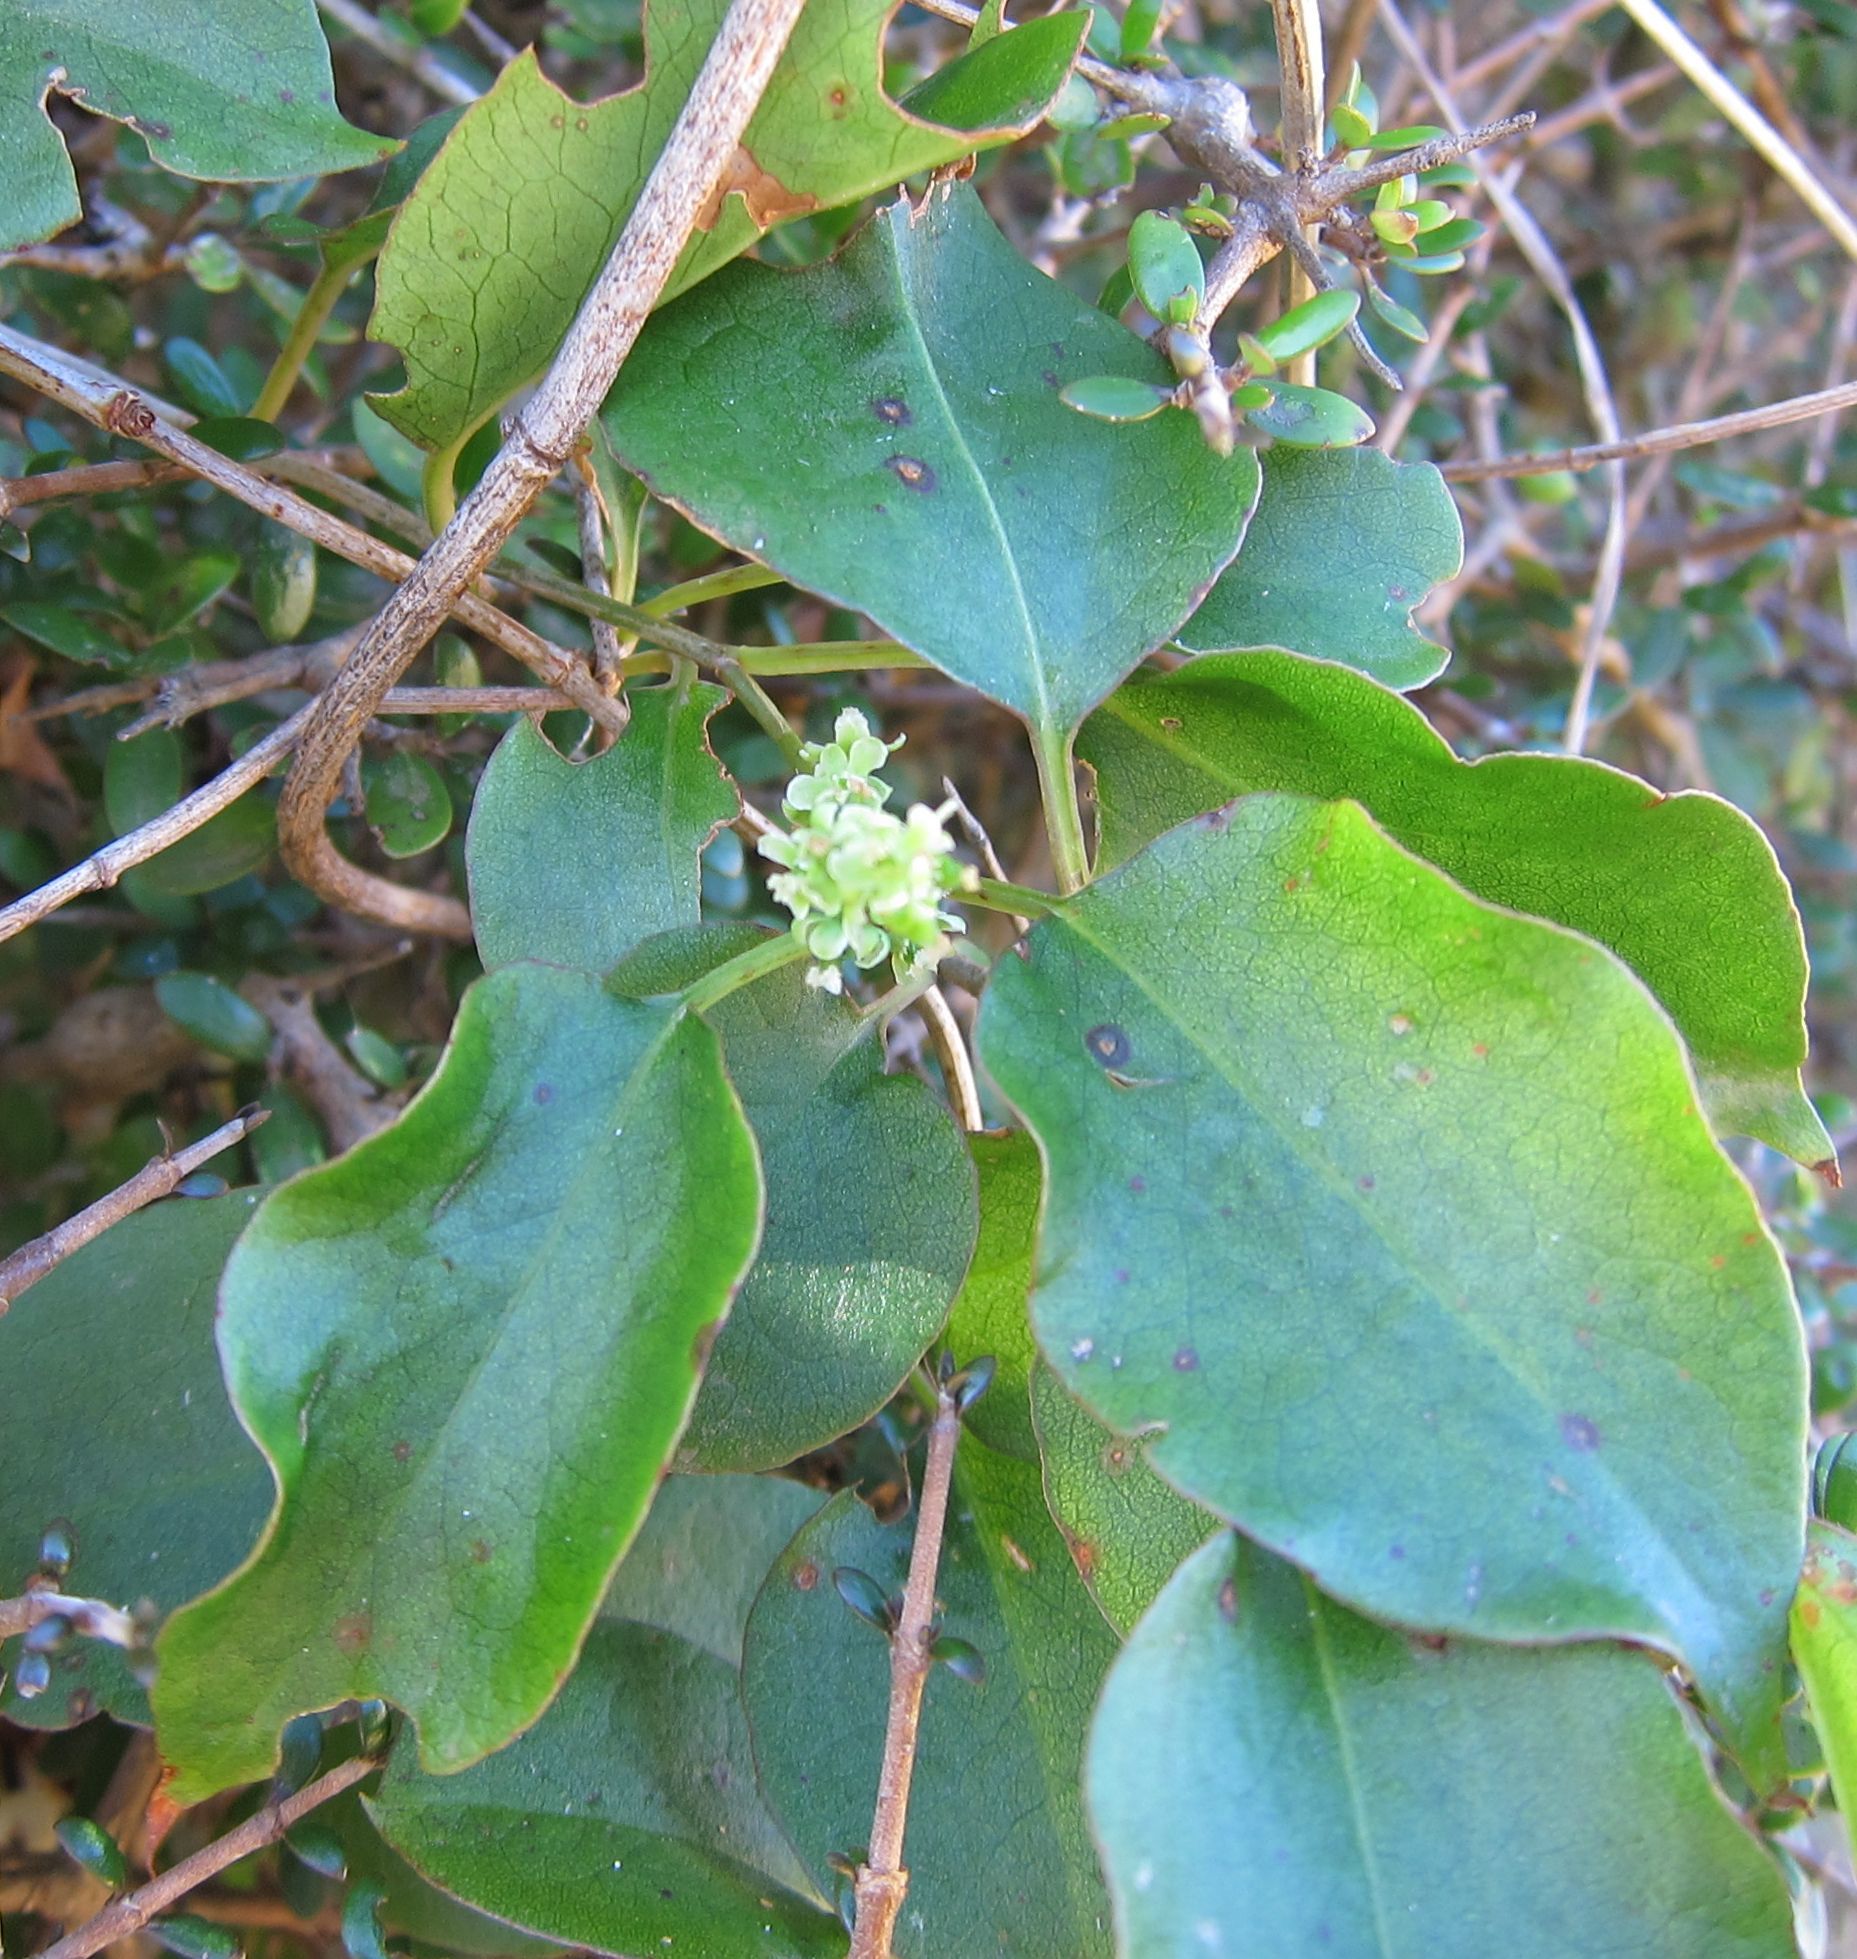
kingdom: Plantae
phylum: Tracheophyta
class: Magnoliopsida
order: Caryophyllales
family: Polygonaceae
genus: Muehlenbeckia
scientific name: Muehlenbeckia australis
